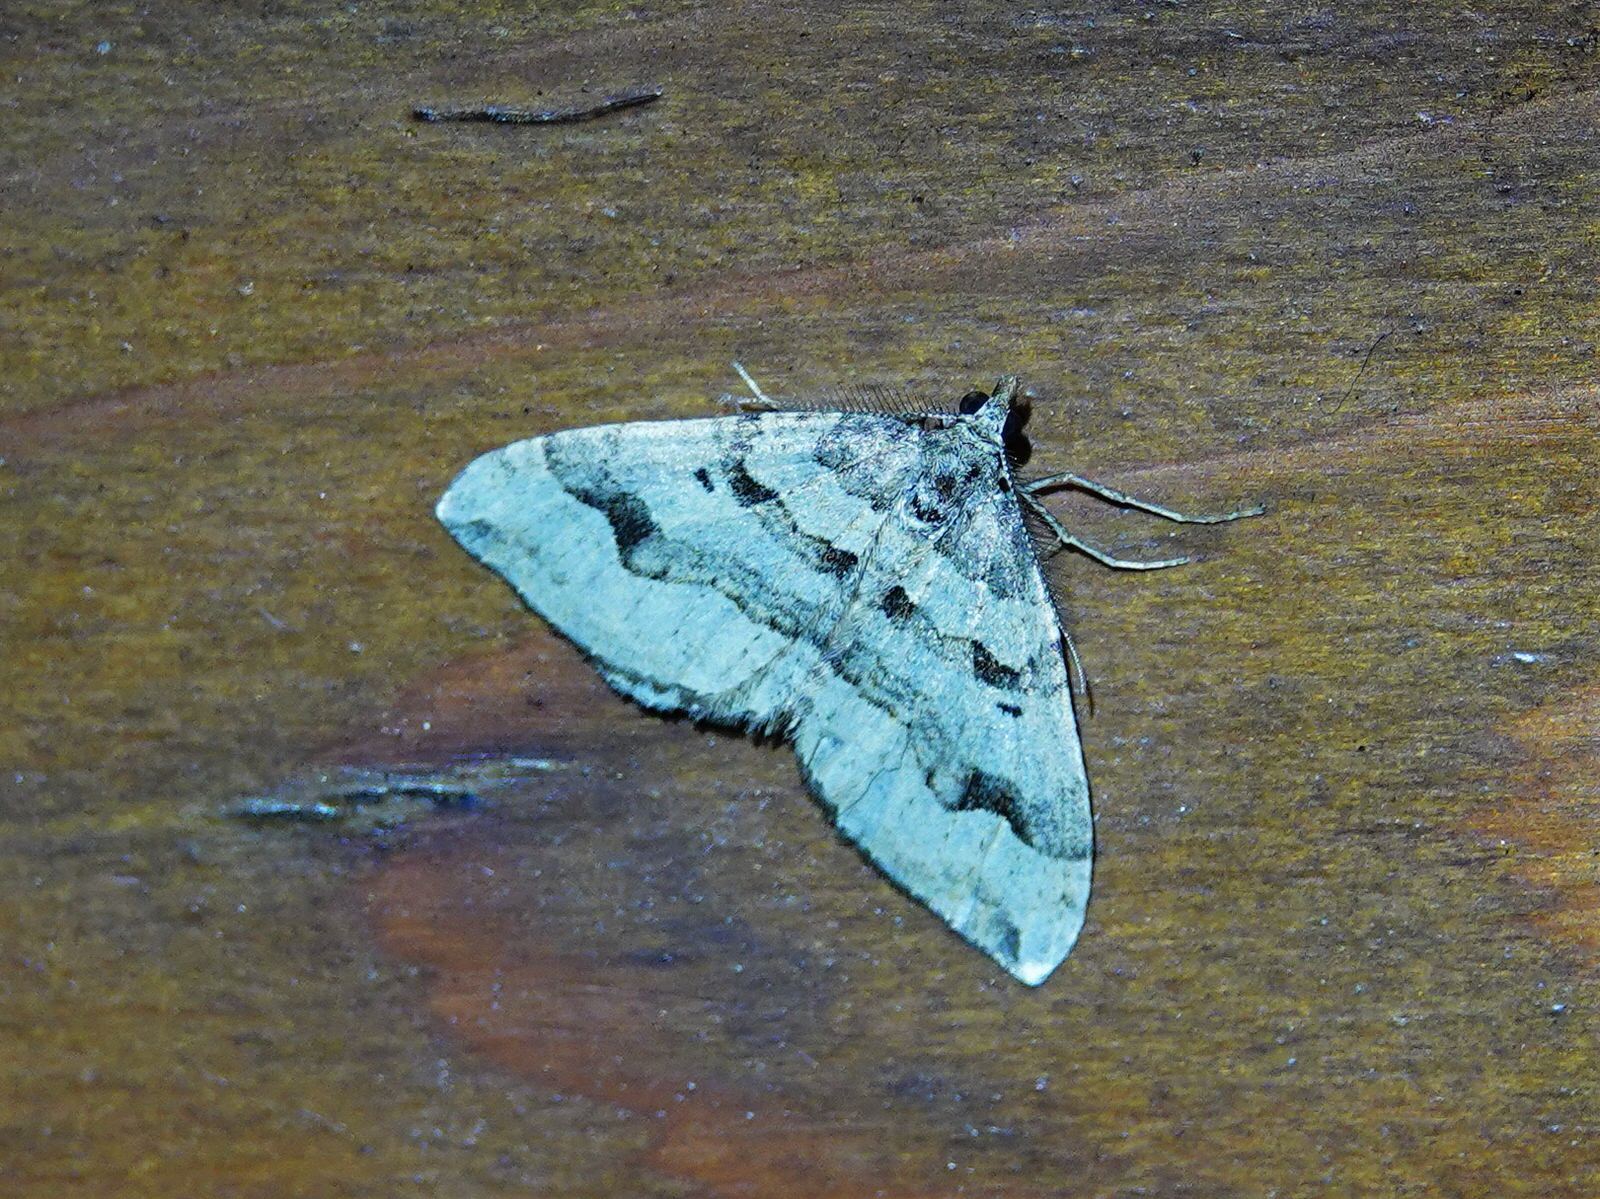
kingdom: Animalia
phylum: Arthropoda
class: Insecta
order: Lepidoptera
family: Geometridae
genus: Epyaxa
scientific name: Epyaxa rosearia
